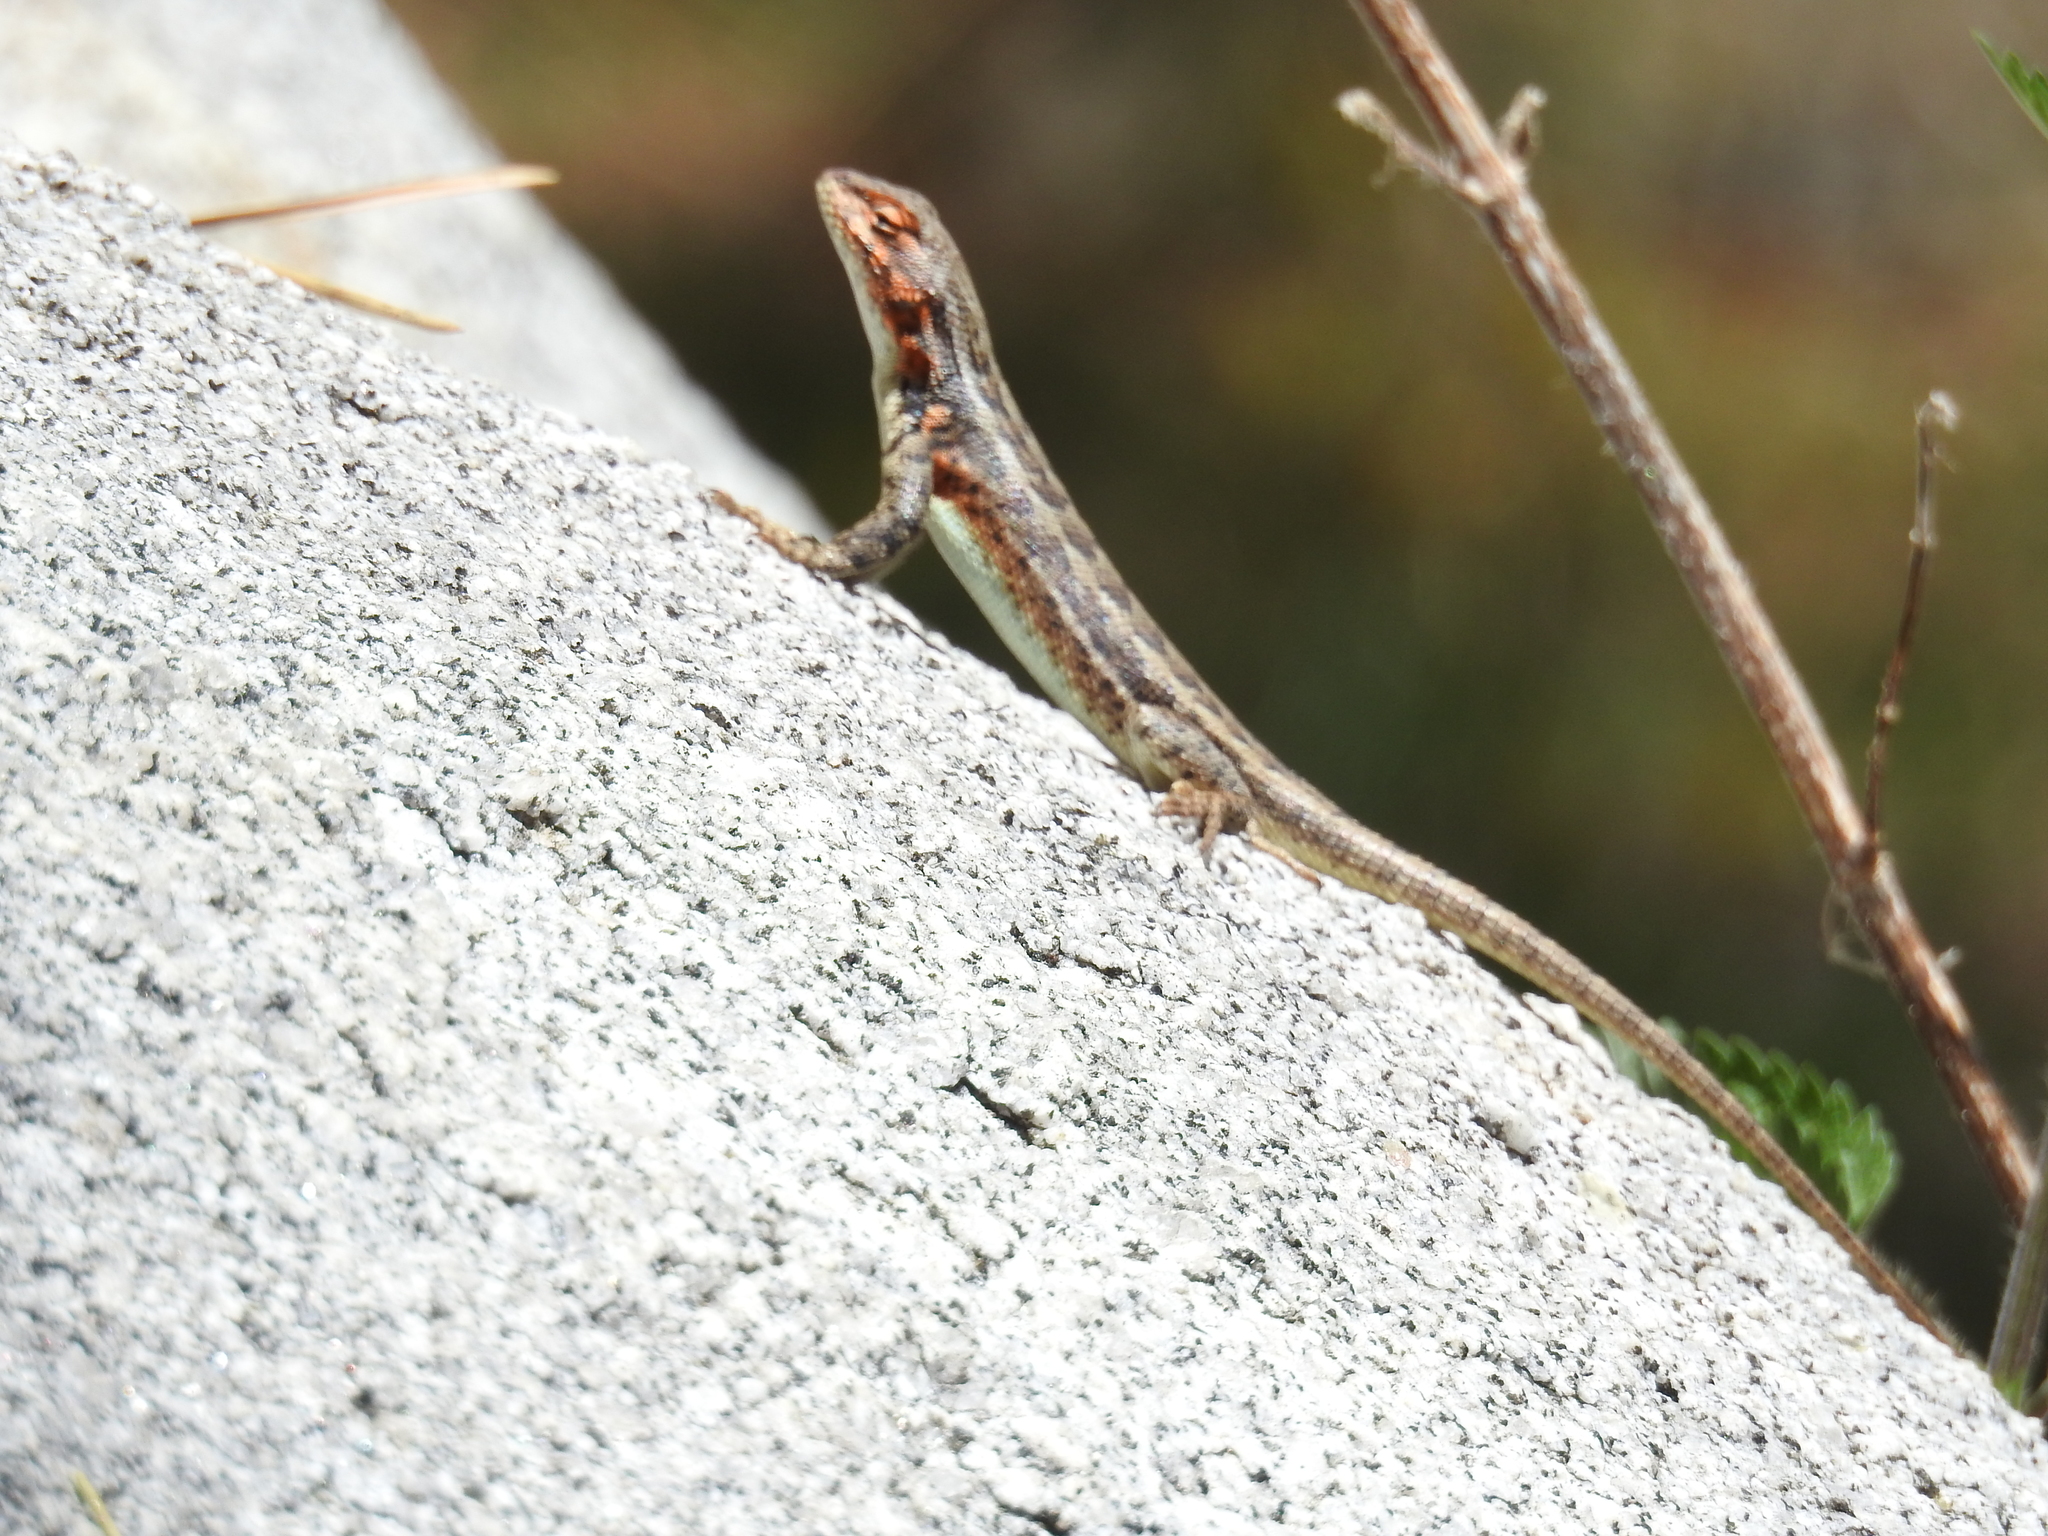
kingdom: Animalia
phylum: Chordata
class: Squamata
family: Phrynosomatidae
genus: Sceloporus
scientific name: Sceloporus graciosus
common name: Sagebrush lizard
